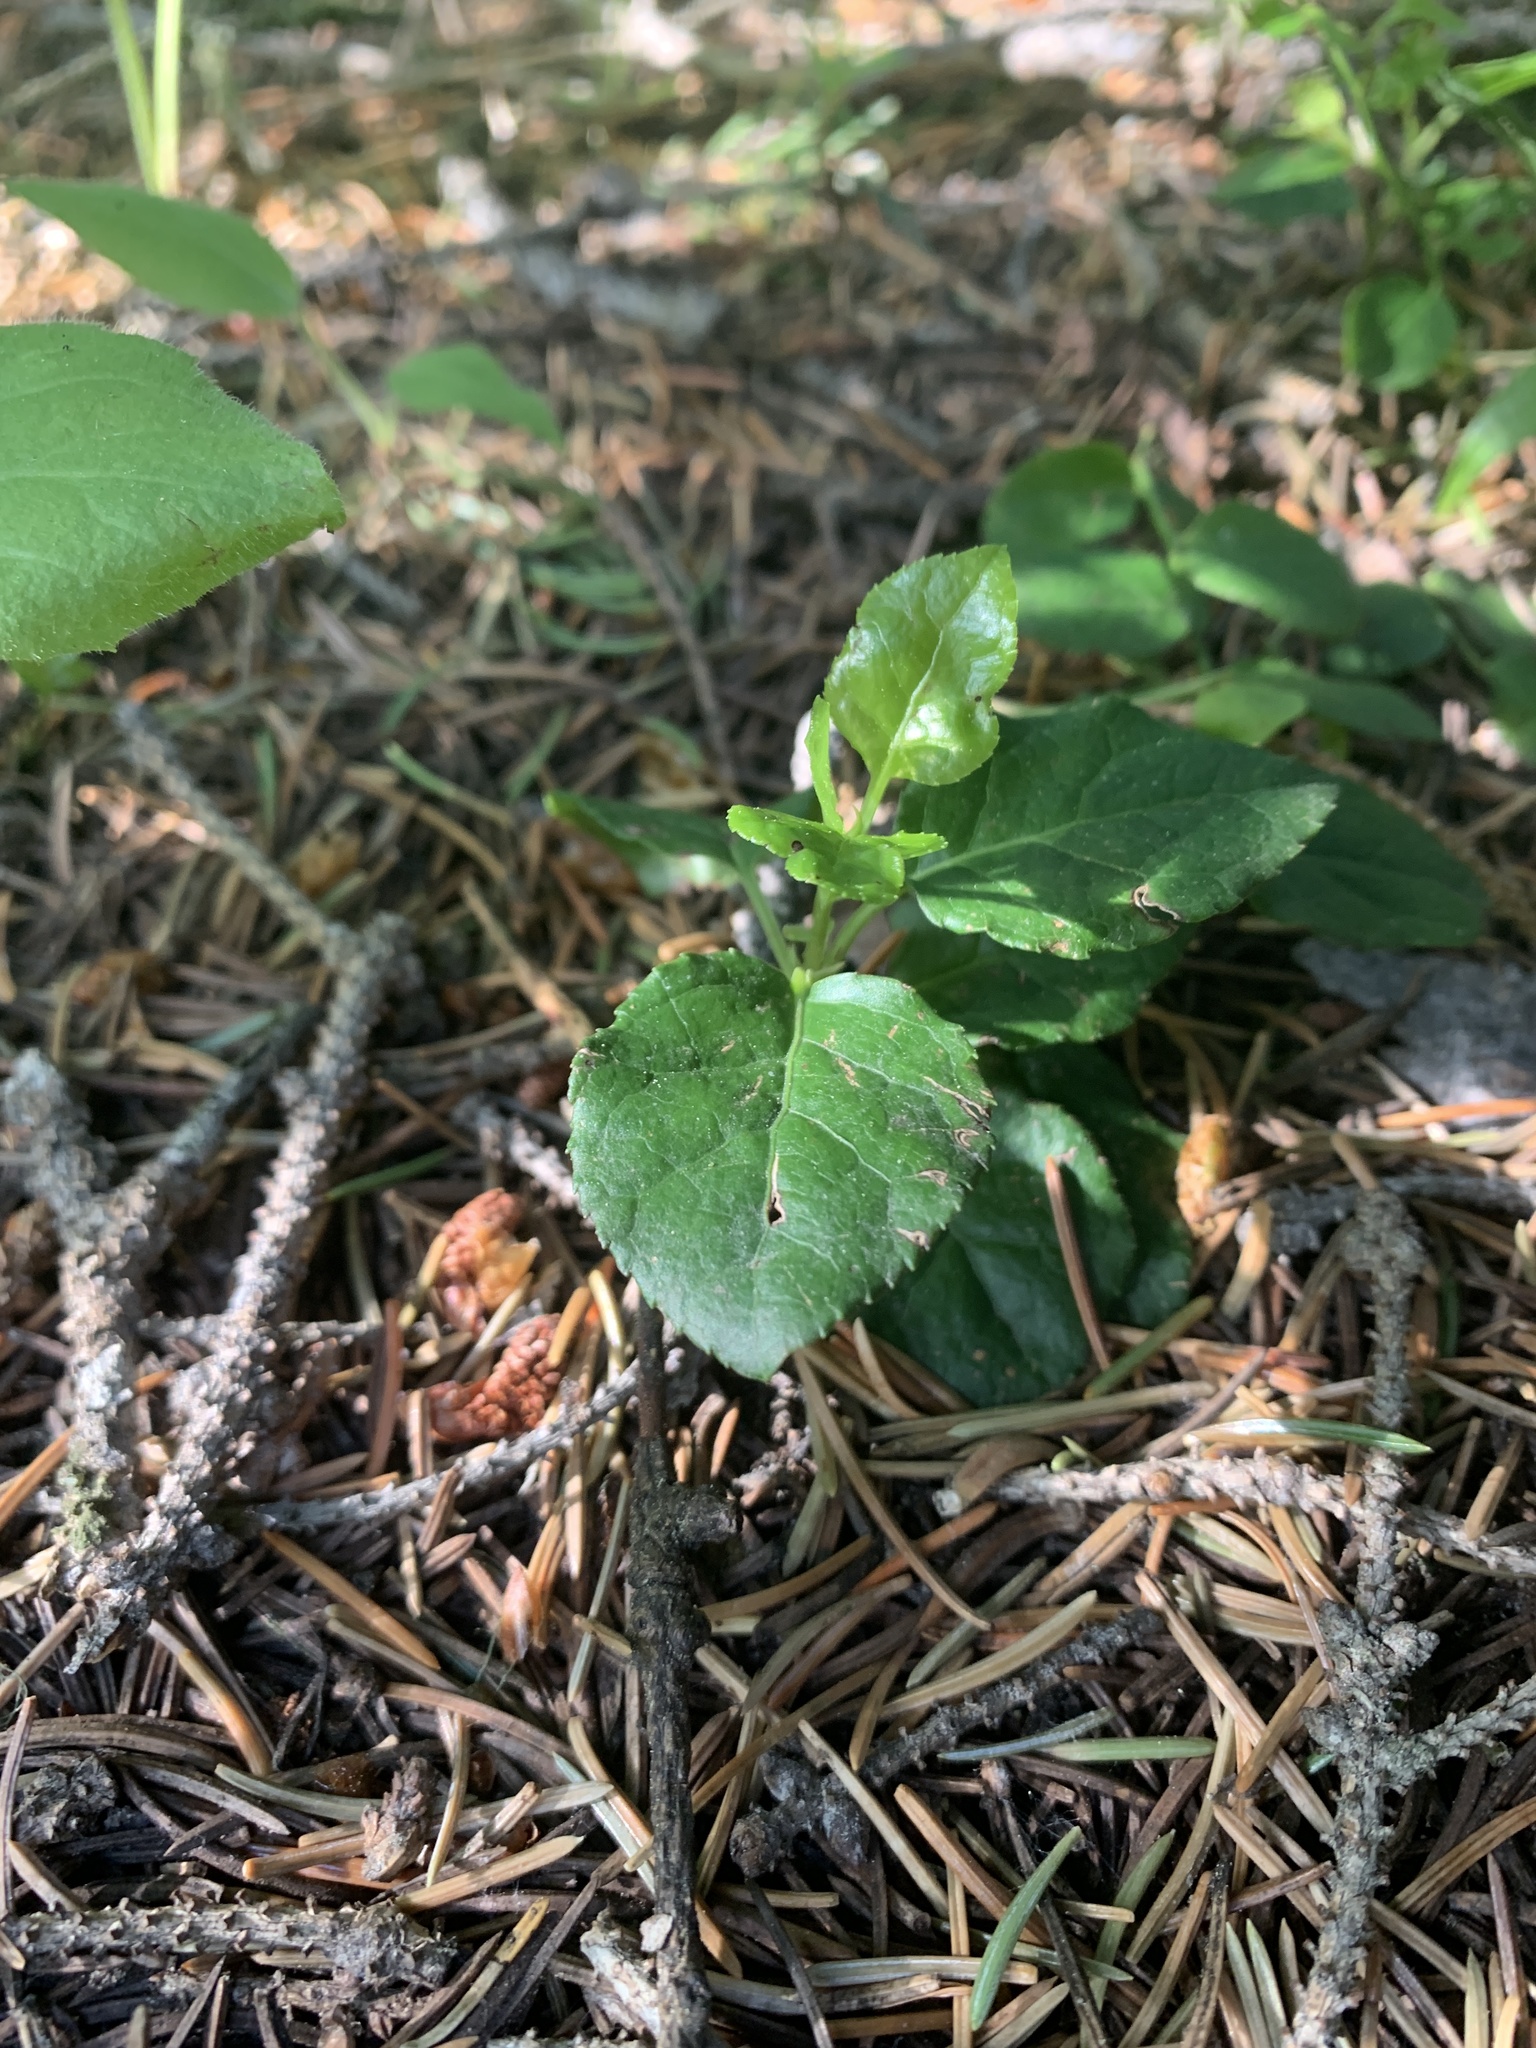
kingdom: Plantae
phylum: Tracheophyta
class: Magnoliopsida
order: Ericales
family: Ericaceae
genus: Orthilia
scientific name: Orthilia secunda
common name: One-sided orthilia
